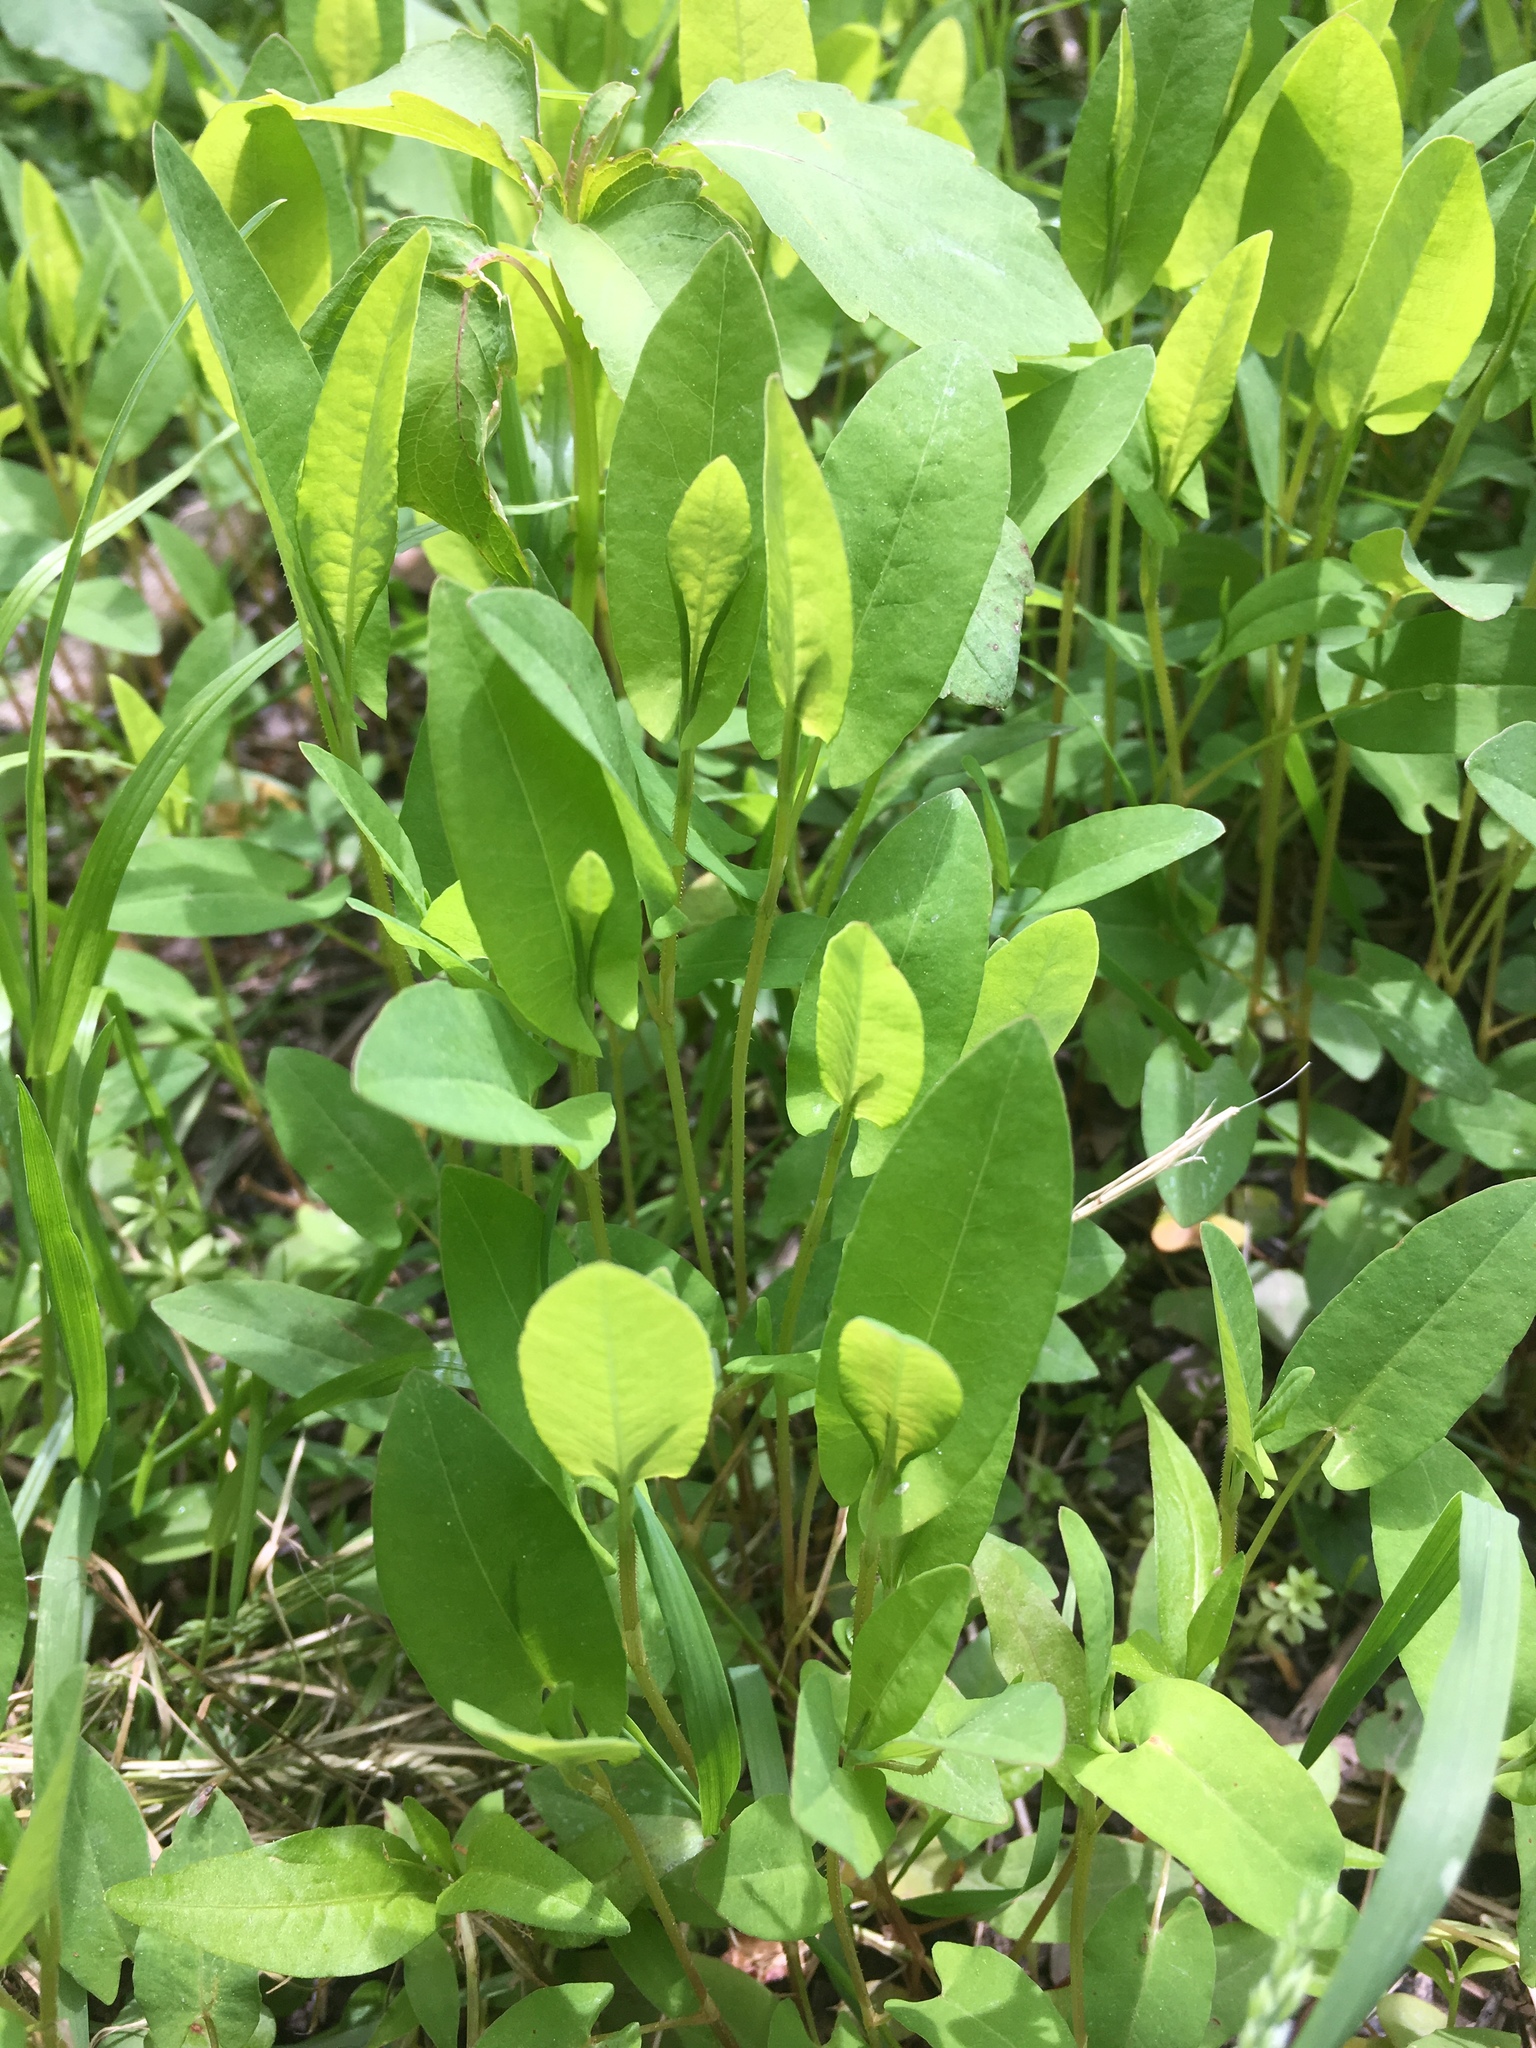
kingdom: Plantae
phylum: Tracheophyta
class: Magnoliopsida
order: Caryophyllales
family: Polygonaceae
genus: Persicaria
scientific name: Persicaria sagittata
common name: American tearthumb
